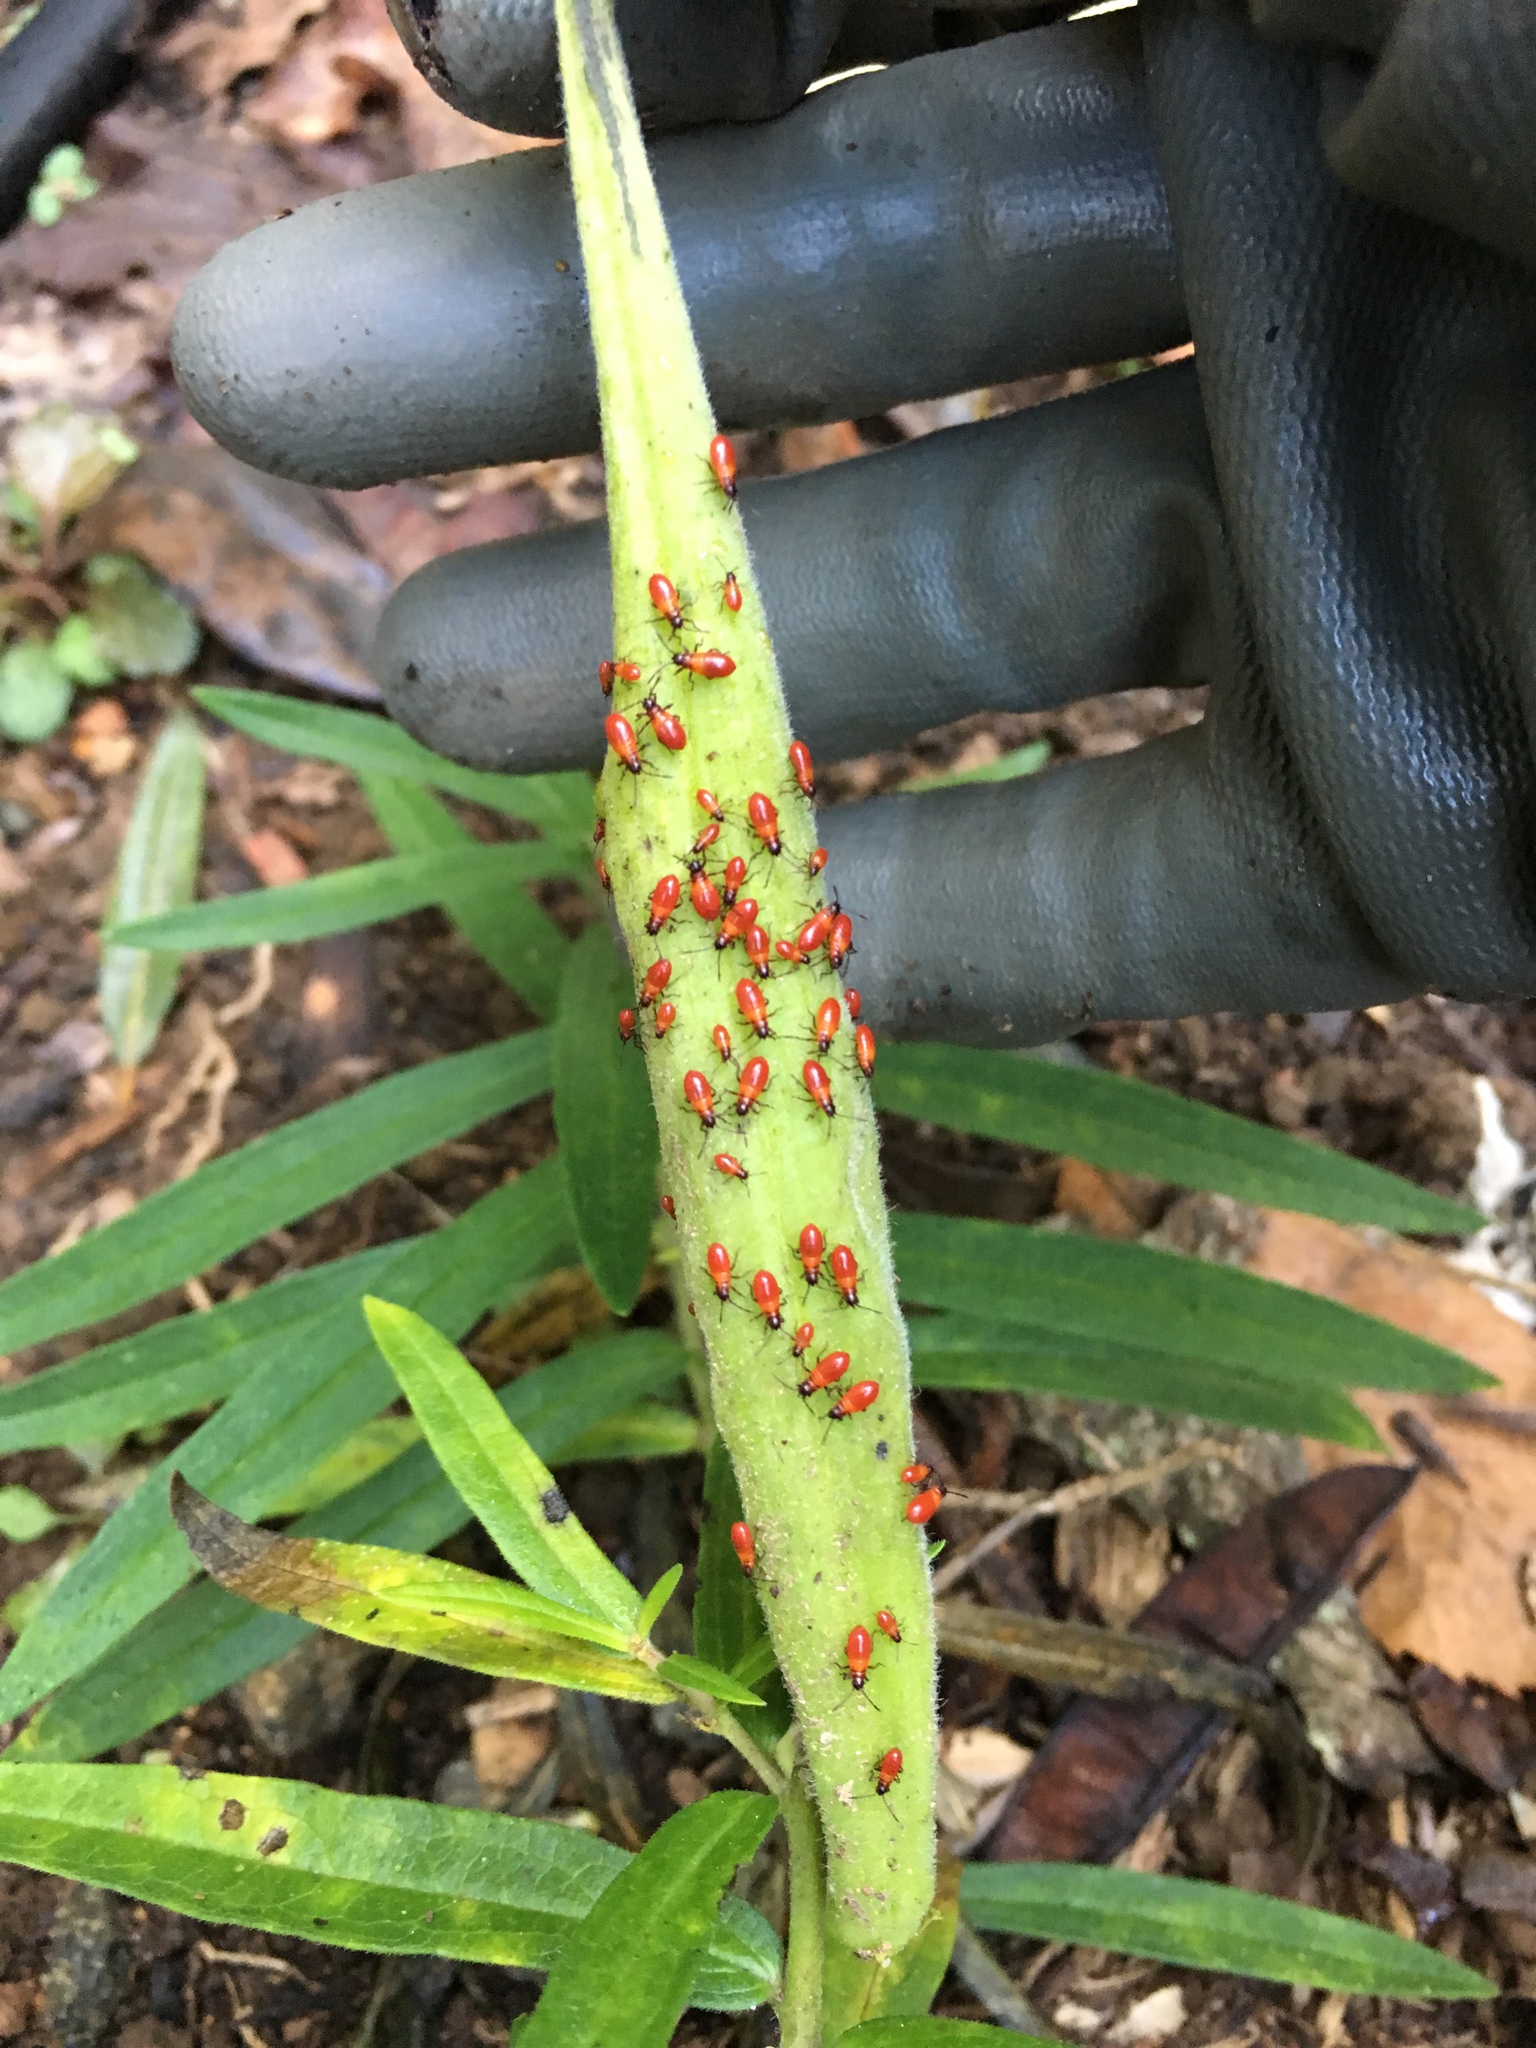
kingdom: Animalia
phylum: Arthropoda
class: Insecta
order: Hemiptera
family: Lygaeidae
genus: Oncopeltus
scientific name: Oncopeltus fasciatus
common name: Large milkweed bug
